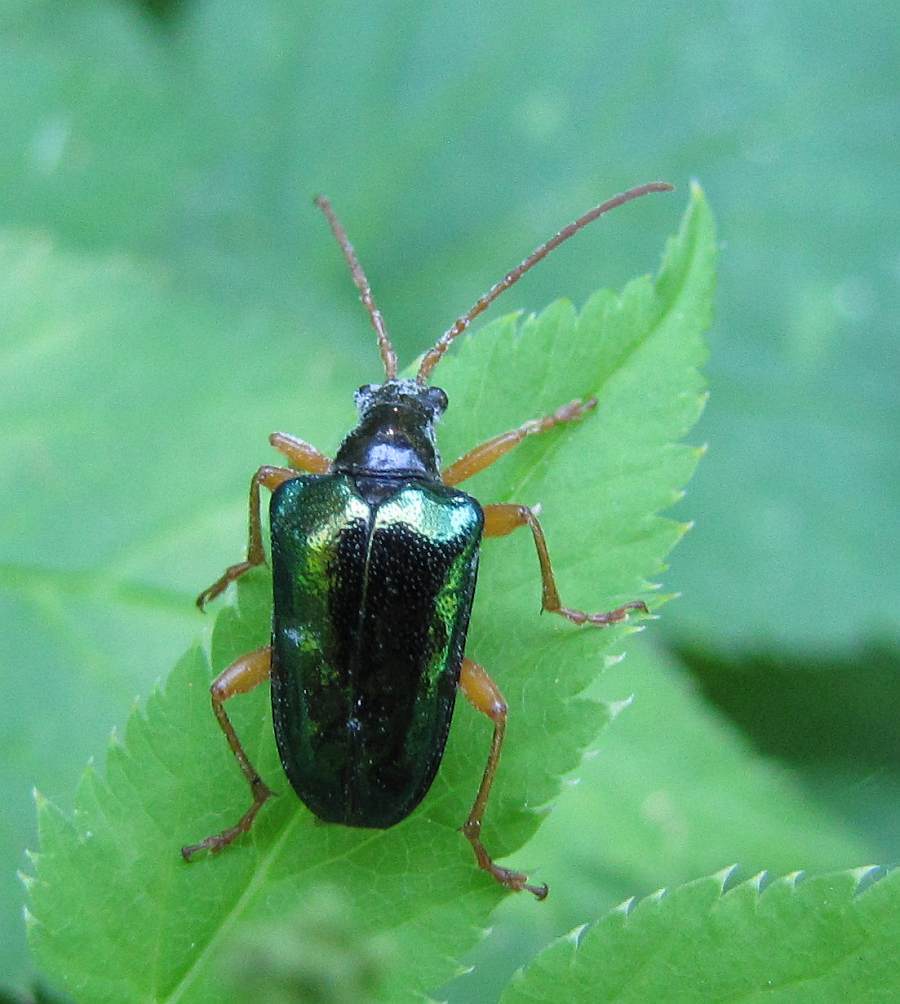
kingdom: Animalia
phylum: Arthropoda
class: Insecta
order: Coleoptera
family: Cerambycidae
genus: Gaurotes
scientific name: Gaurotes cyanipennis
